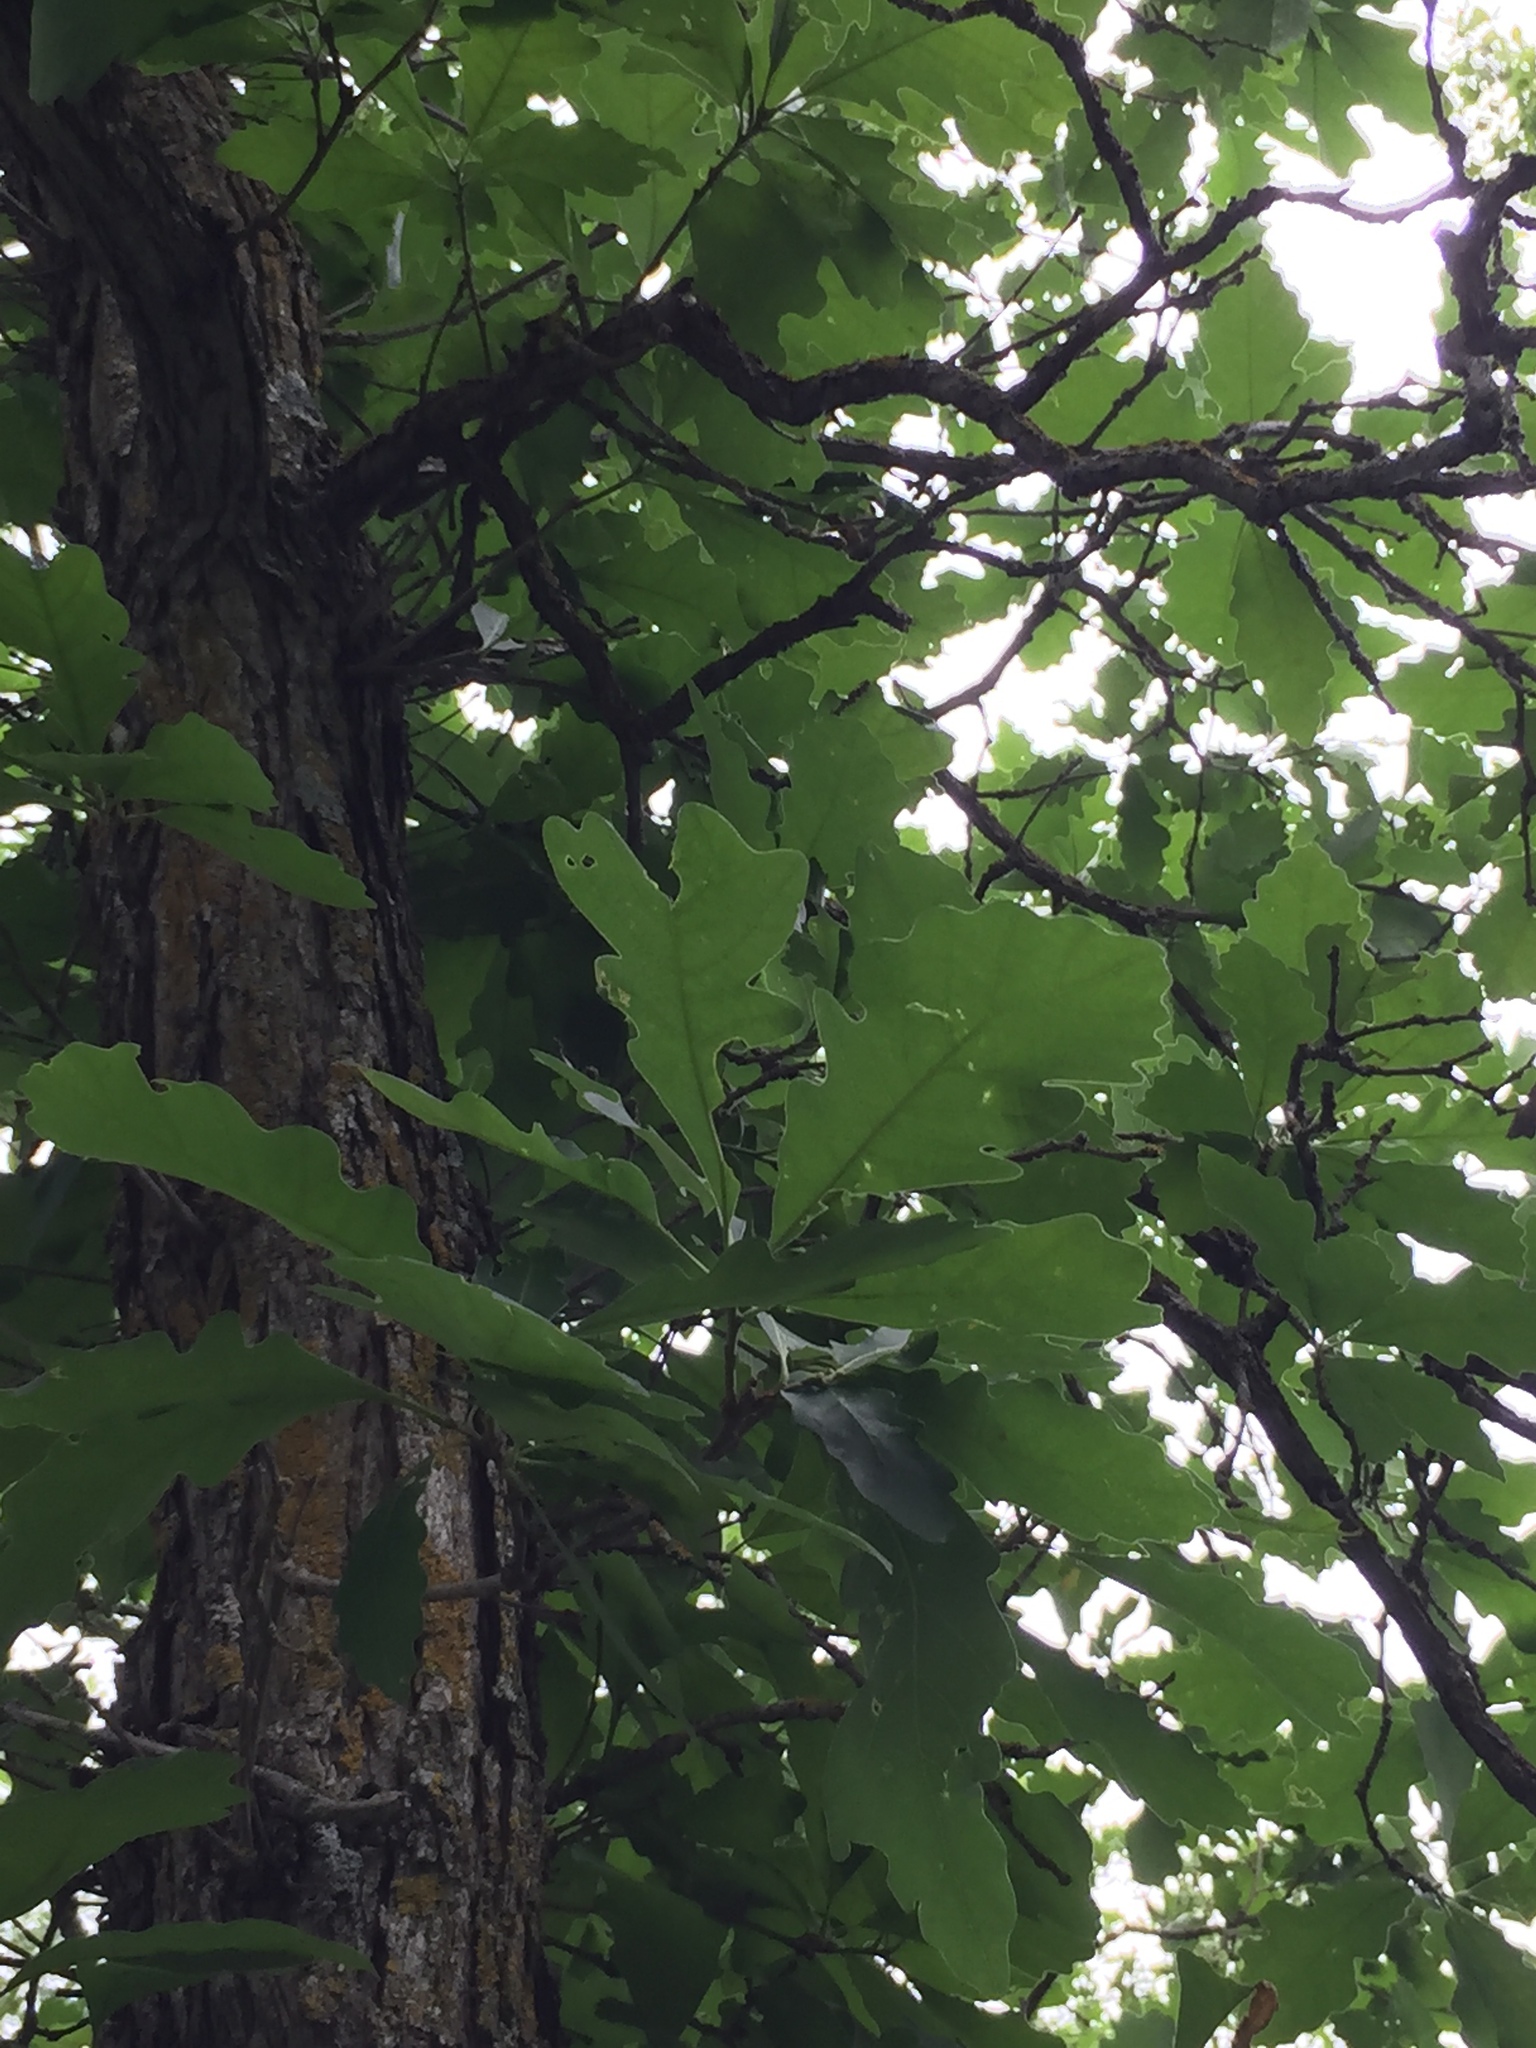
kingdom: Plantae
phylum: Tracheophyta
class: Magnoliopsida
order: Fagales
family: Fagaceae
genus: Quercus
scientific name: Quercus macrocarpa
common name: Bur oak
